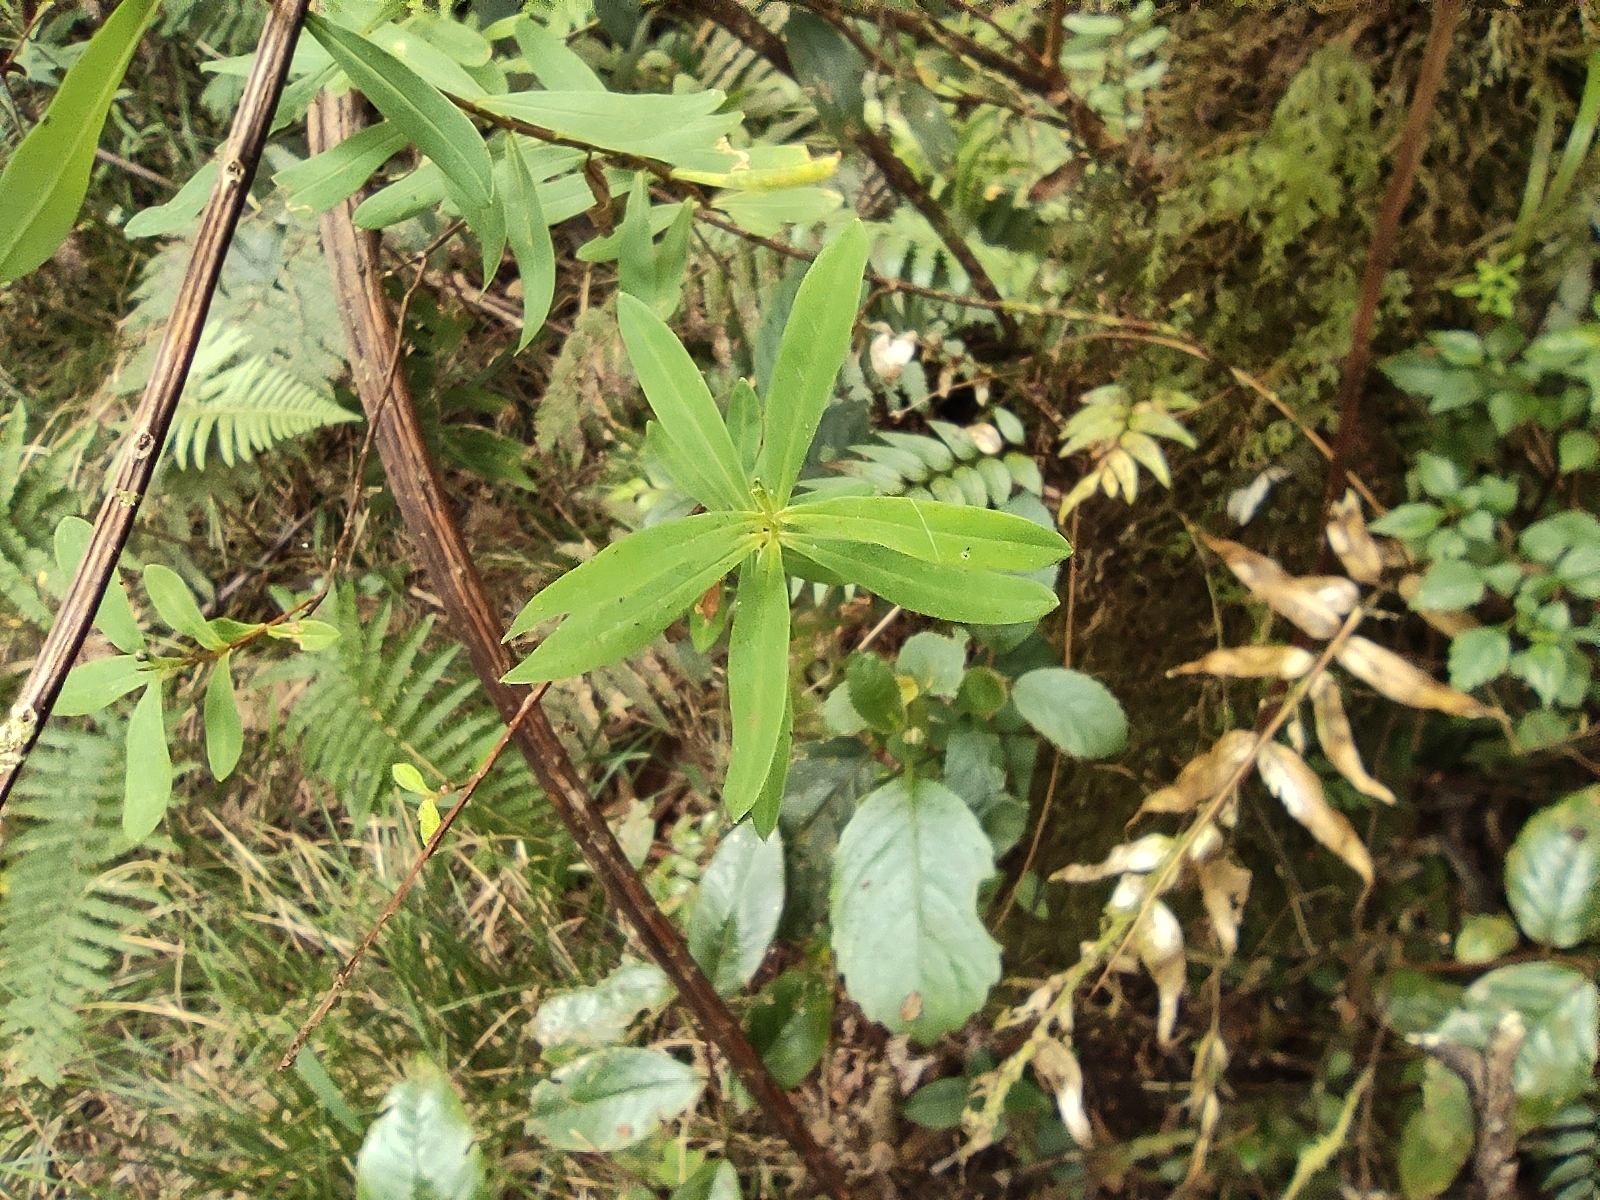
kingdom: Plantae
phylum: Tracheophyta
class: Magnoliopsida
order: Malpighiales
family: Hypericaceae
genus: Hypericum
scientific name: Hypericum lanceolatum
